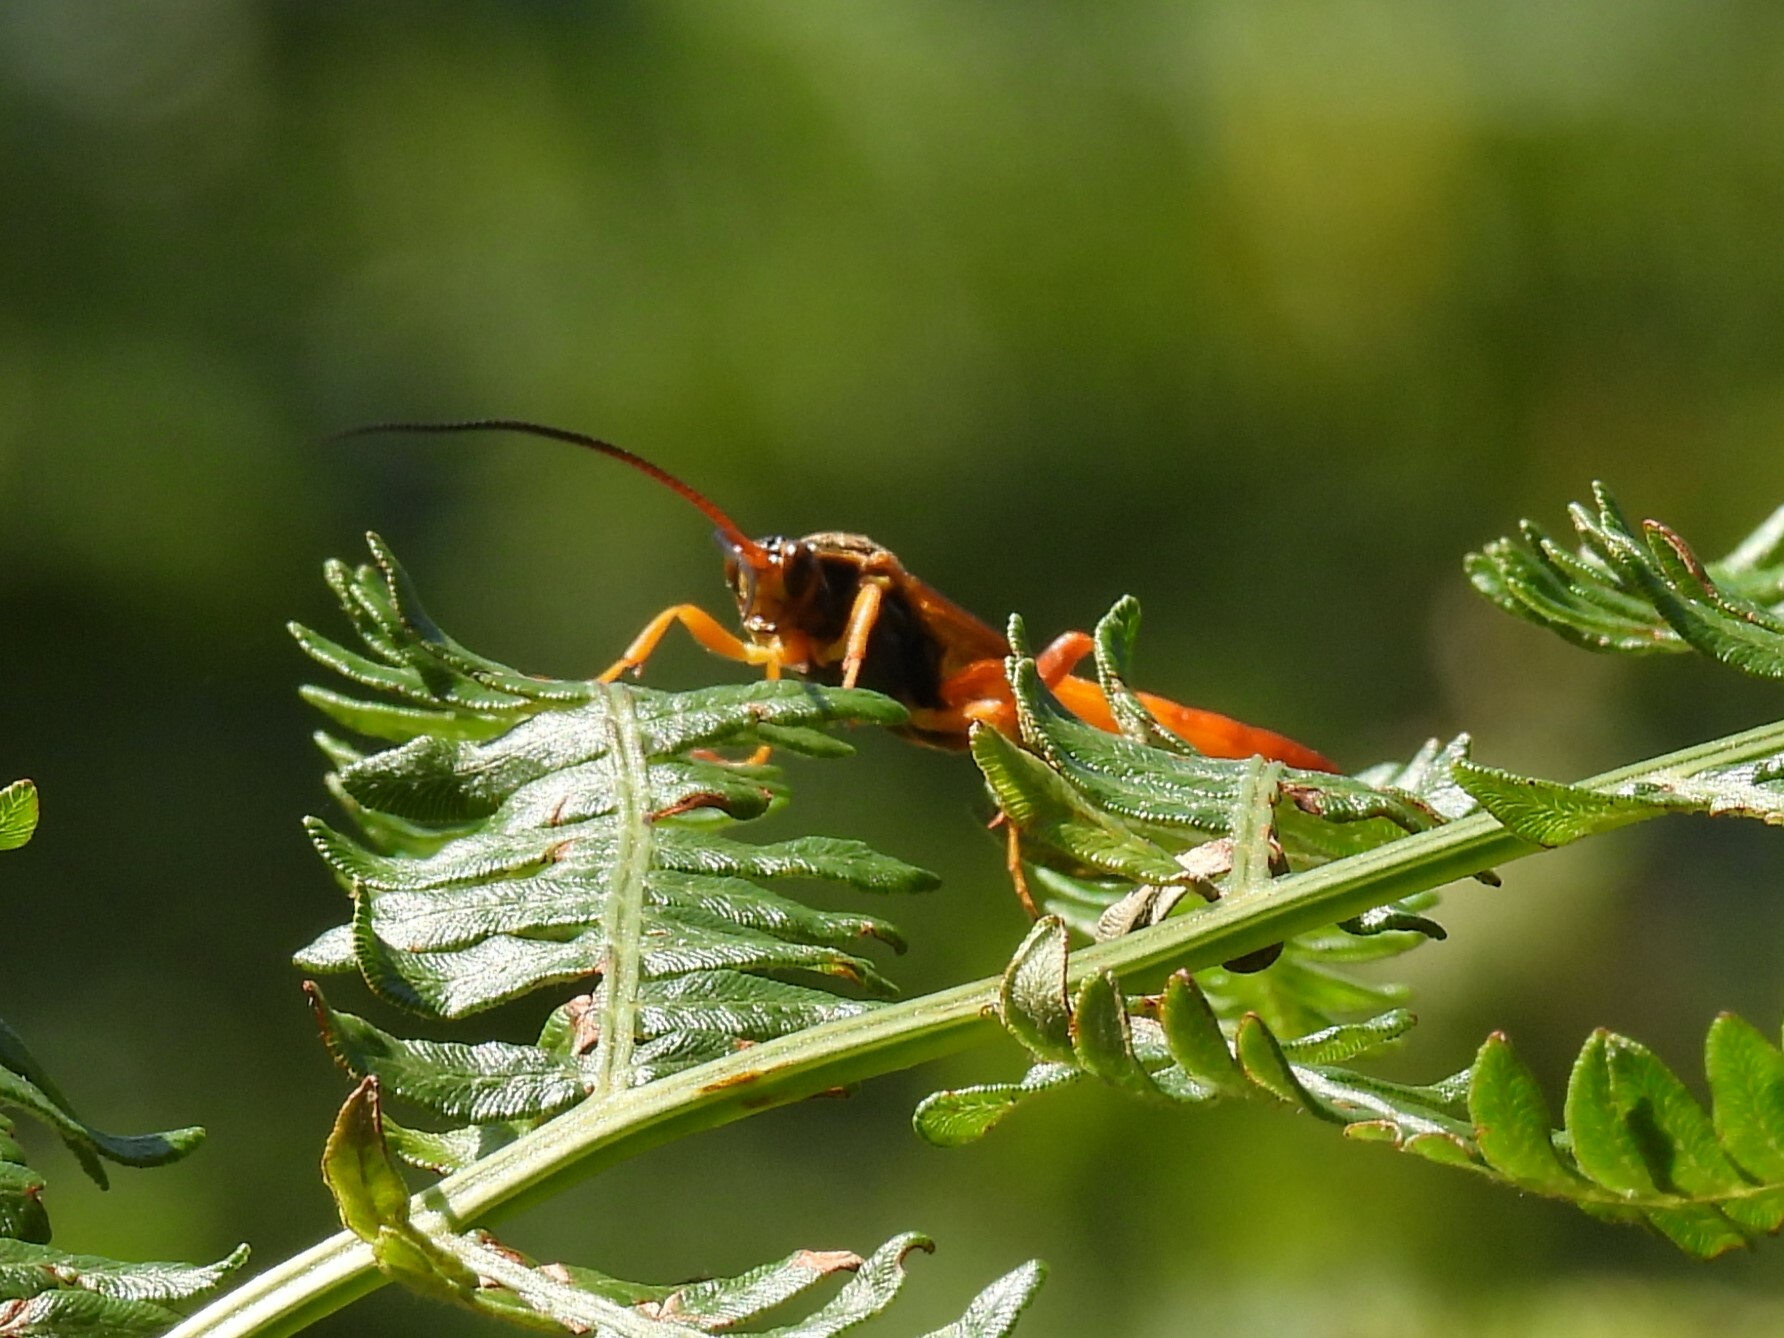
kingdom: Animalia
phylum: Arthropoda
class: Insecta
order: Hymenoptera
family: Ichneumonidae
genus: Callajoppa
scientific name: Callajoppa cirrogaster
